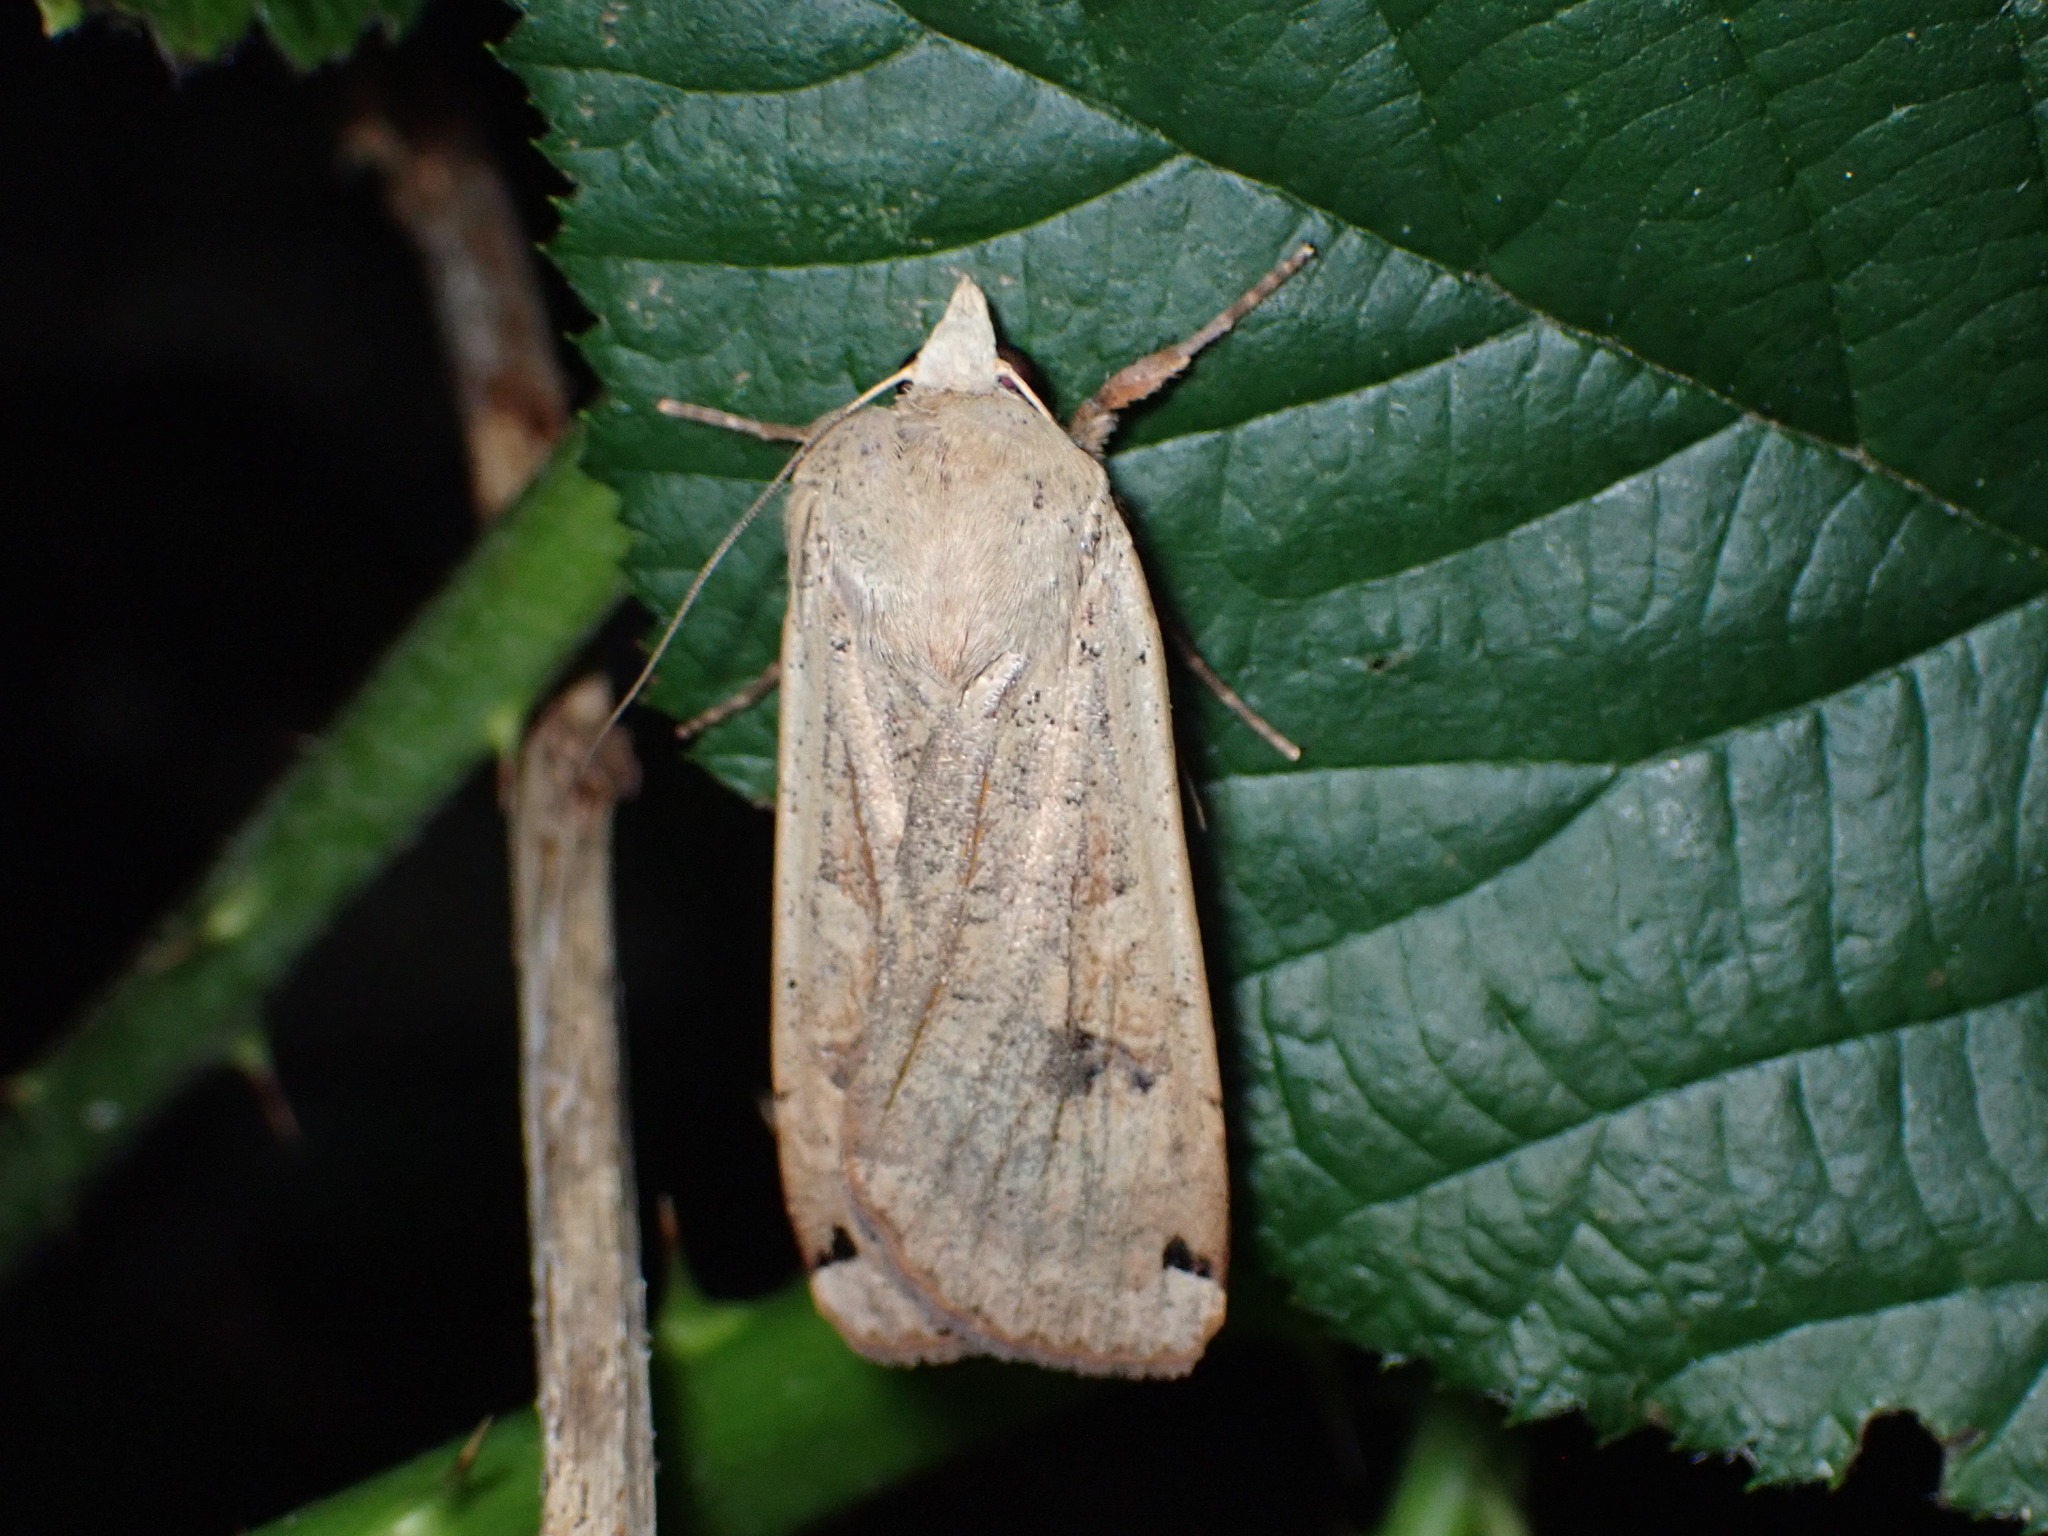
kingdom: Animalia
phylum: Arthropoda
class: Insecta
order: Lepidoptera
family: Noctuidae
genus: Noctua
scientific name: Noctua pronuba
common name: Large yellow underwing
